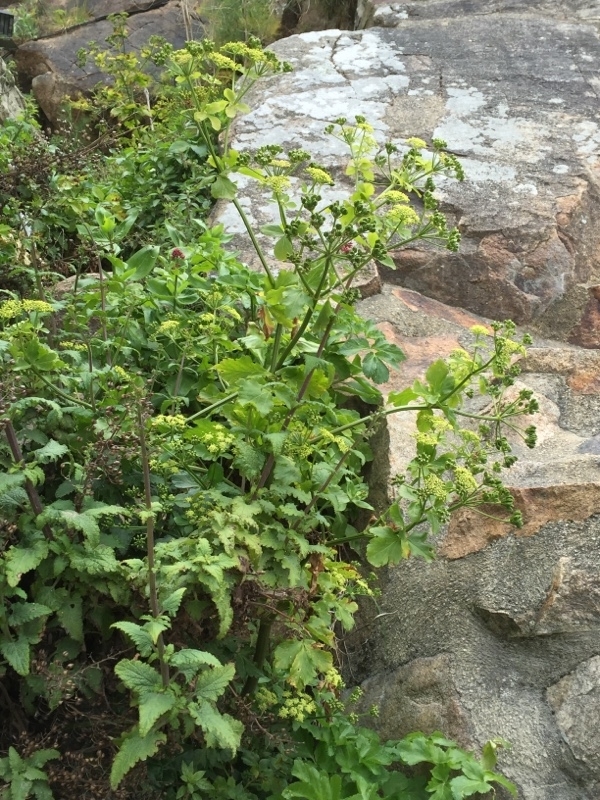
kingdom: Plantae
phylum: Tracheophyta
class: Magnoliopsida
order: Apiales
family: Apiaceae
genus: Smyrnium
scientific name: Smyrnium olusatrum
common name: Alexanders
